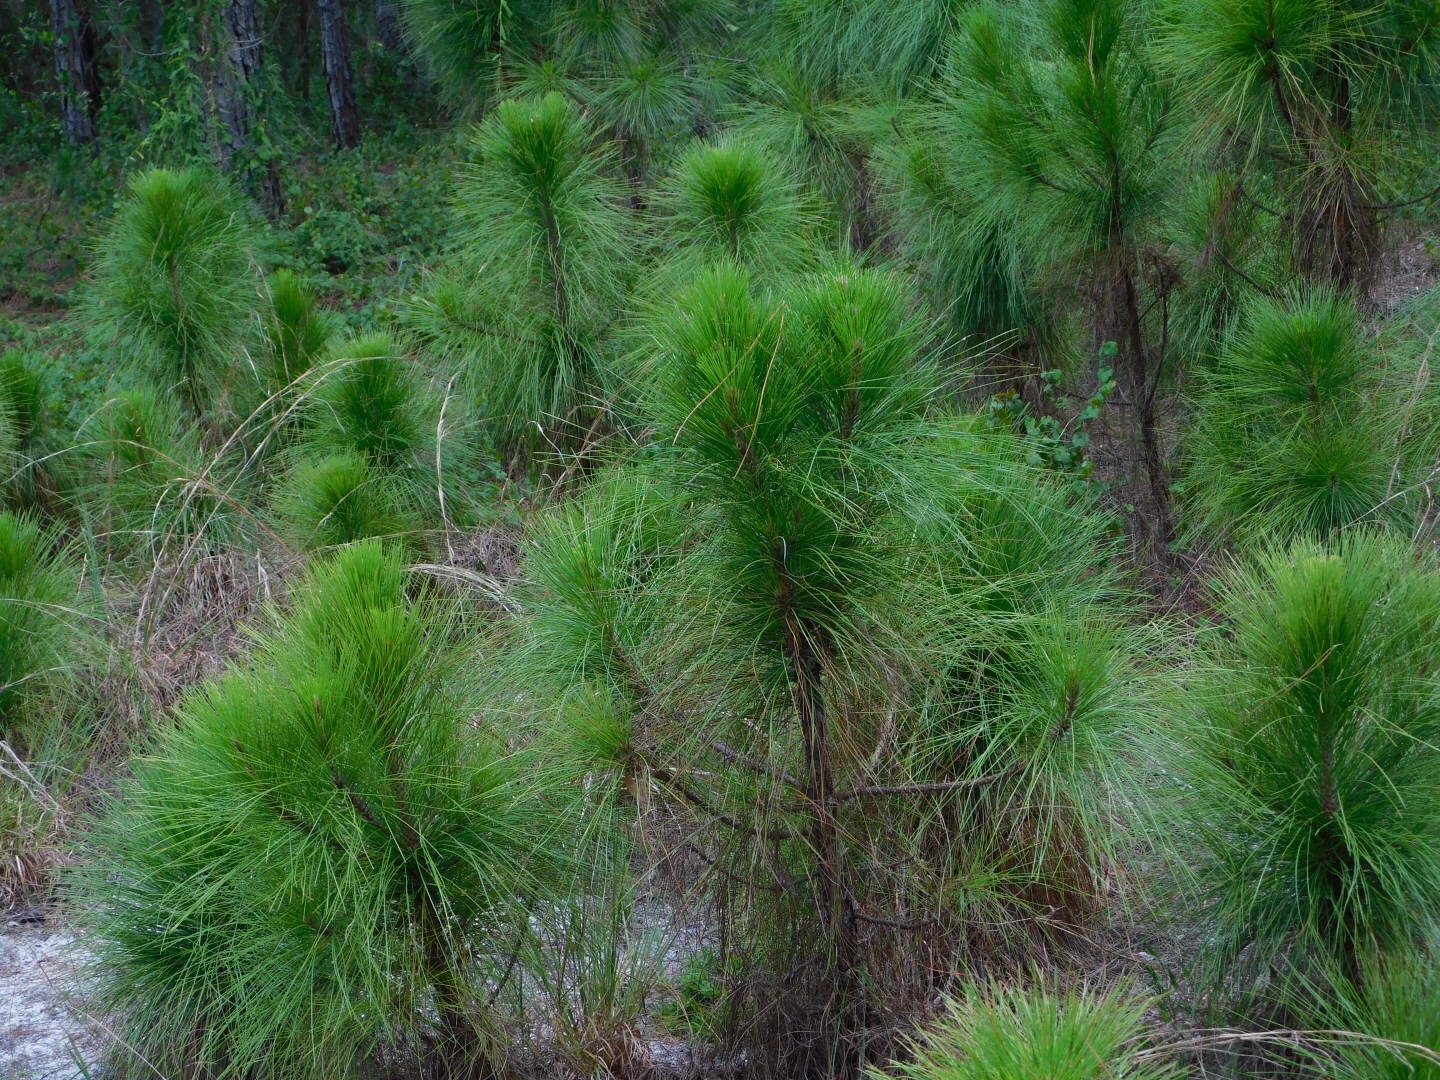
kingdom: Plantae
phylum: Tracheophyta
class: Pinopsida
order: Pinales
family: Pinaceae
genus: Pinus
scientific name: Pinus elliottii
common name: Slash pine
